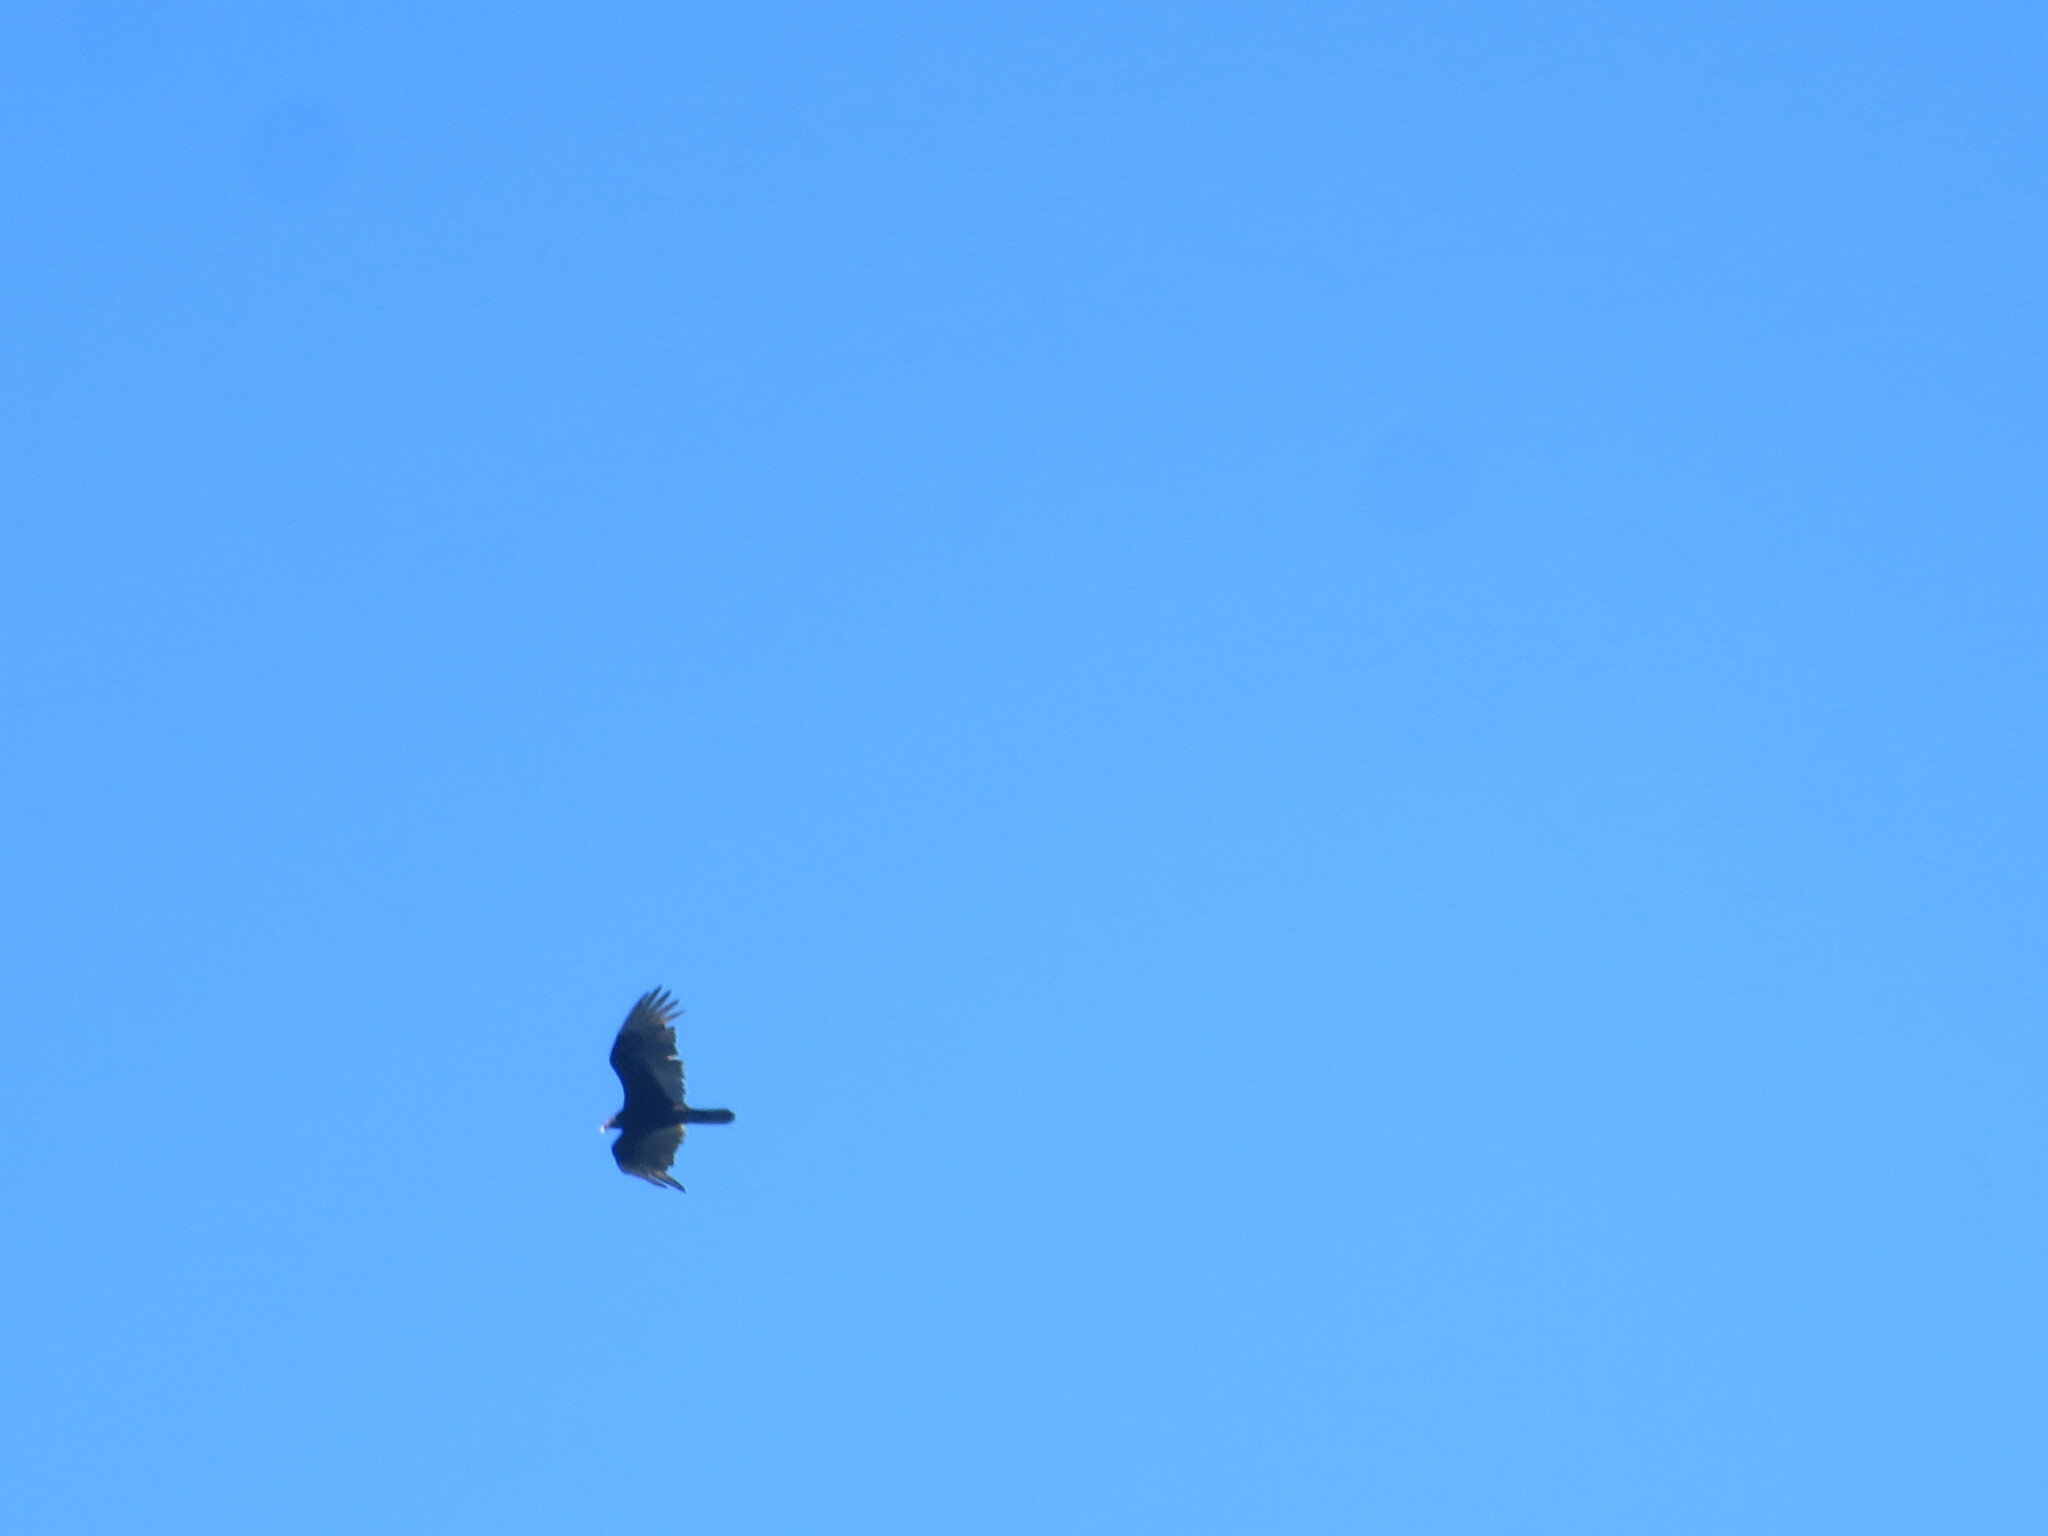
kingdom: Animalia
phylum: Chordata
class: Aves
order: Accipitriformes
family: Cathartidae
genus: Cathartes
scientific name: Cathartes aura
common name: Turkey vulture
